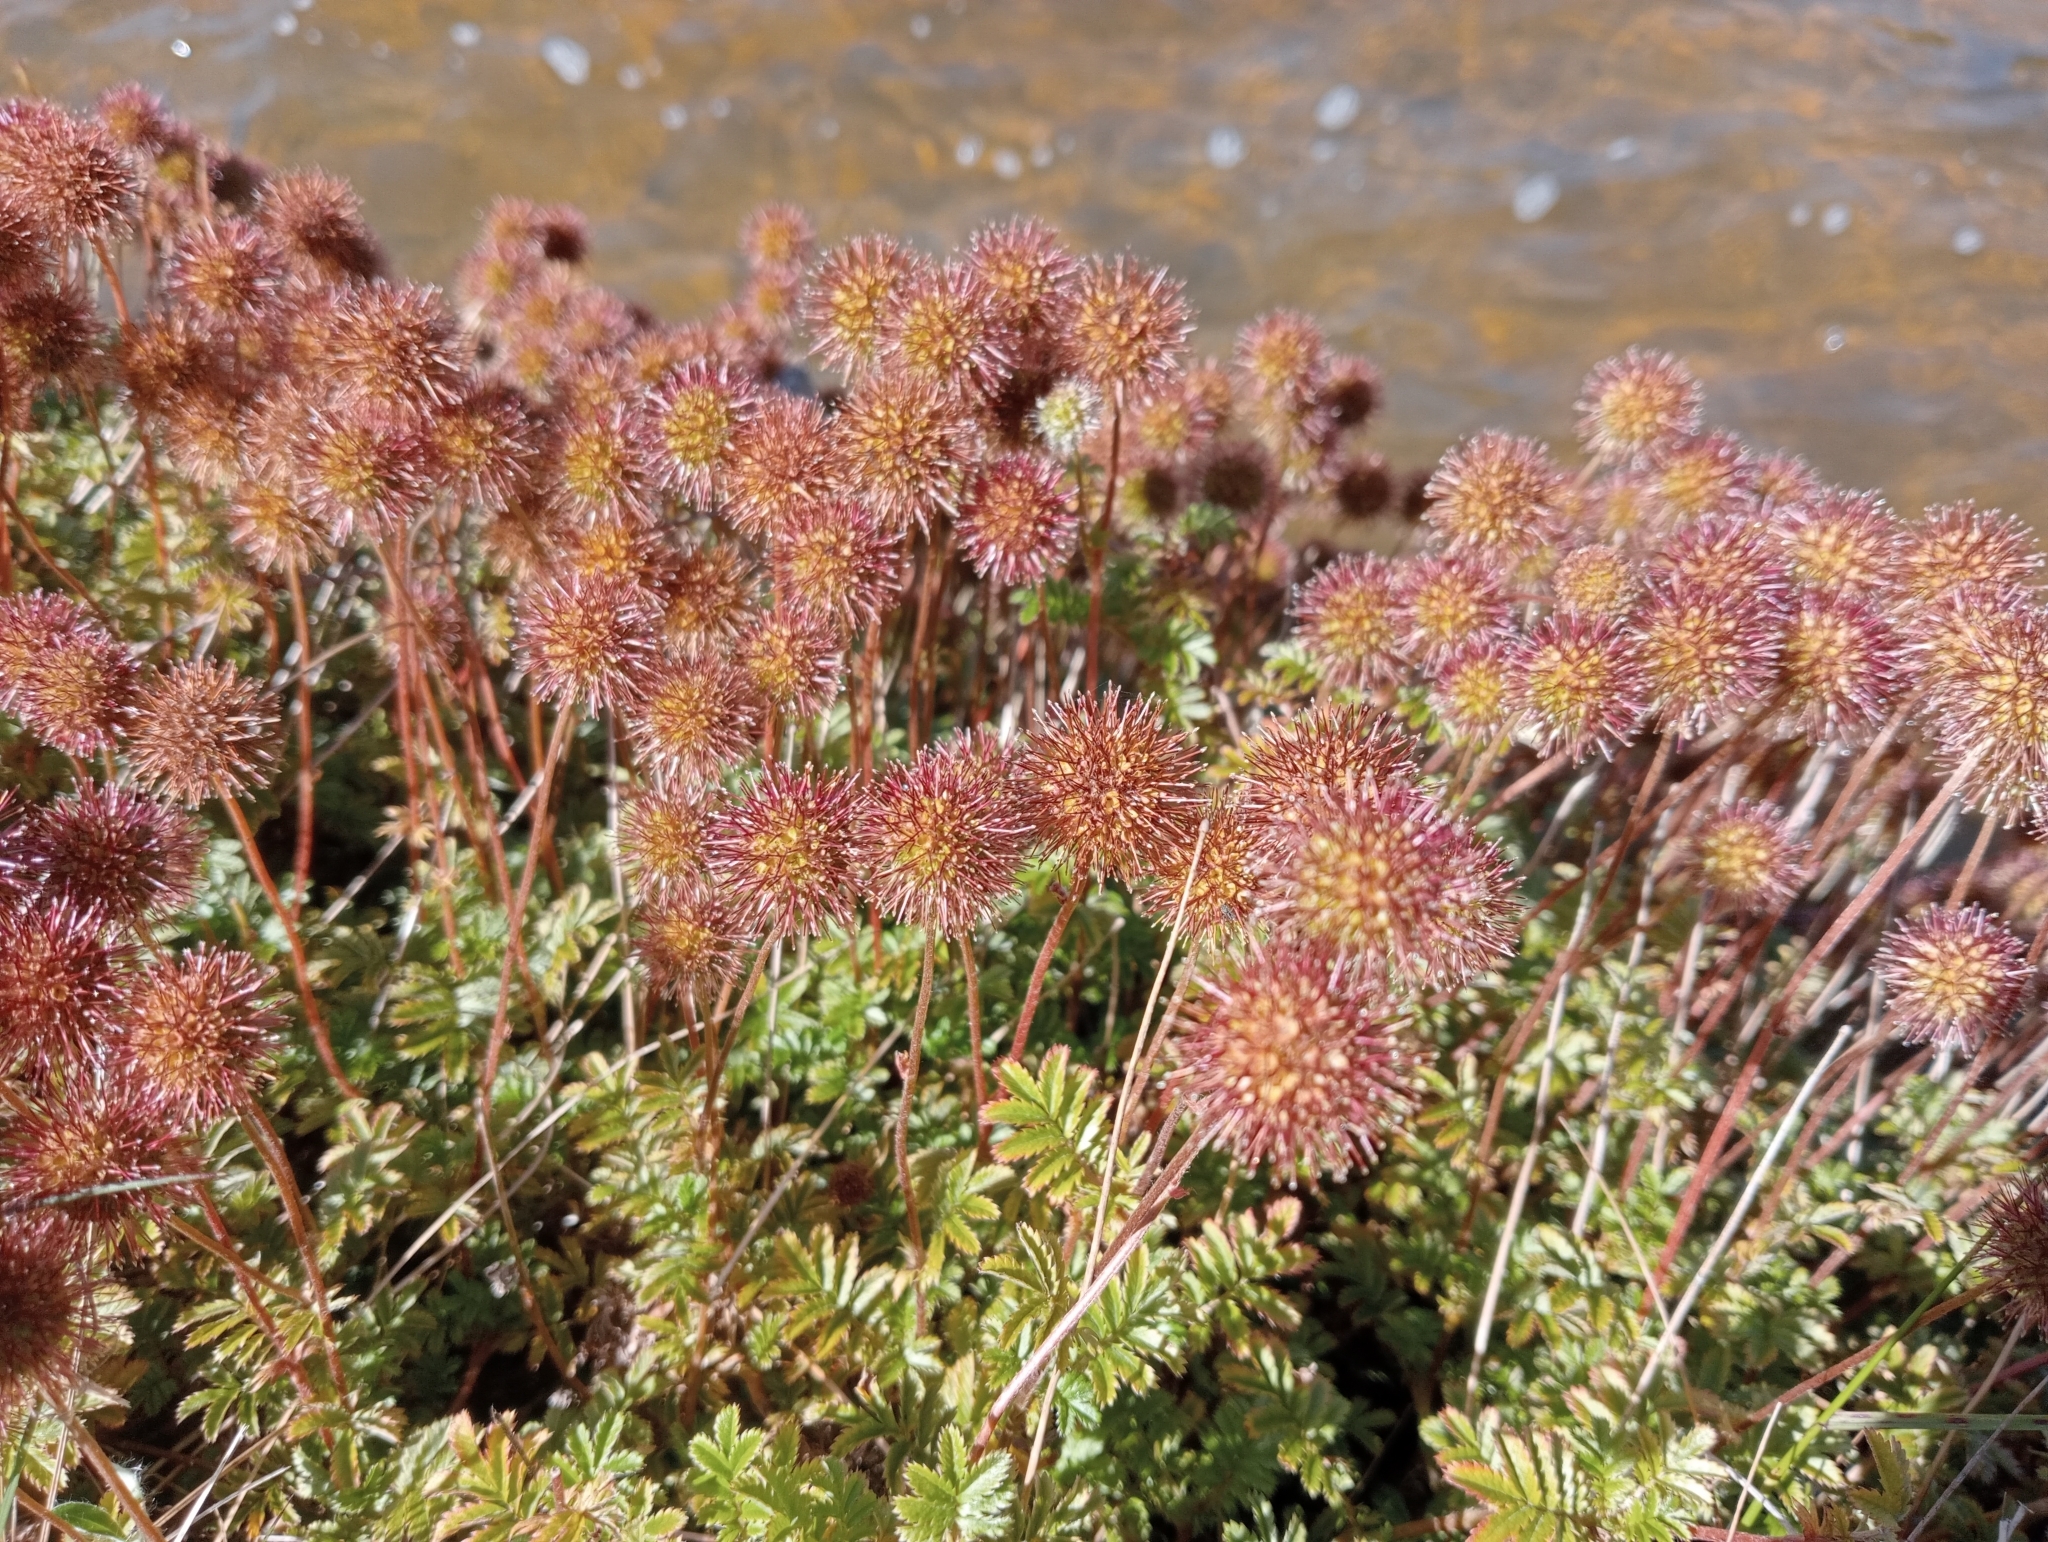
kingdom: Plantae
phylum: Tracheophyta
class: Magnoliopsida
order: Rosales
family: Rosaceae
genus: Acaena
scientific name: Acaena novae-zelandiae
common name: Pirri-pirri-bur
